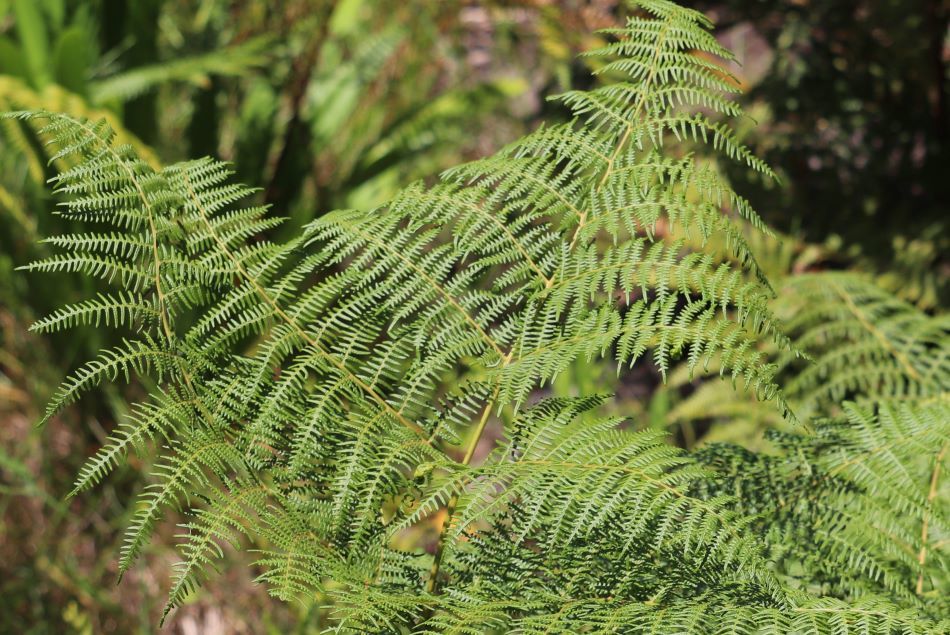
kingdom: Plantae
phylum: Tracheophyta
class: Polypodiopsida
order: Polypodiales
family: Dennstaedtiaceae
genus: Pteridium
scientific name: Pteridium aquilinum
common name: Bracken
